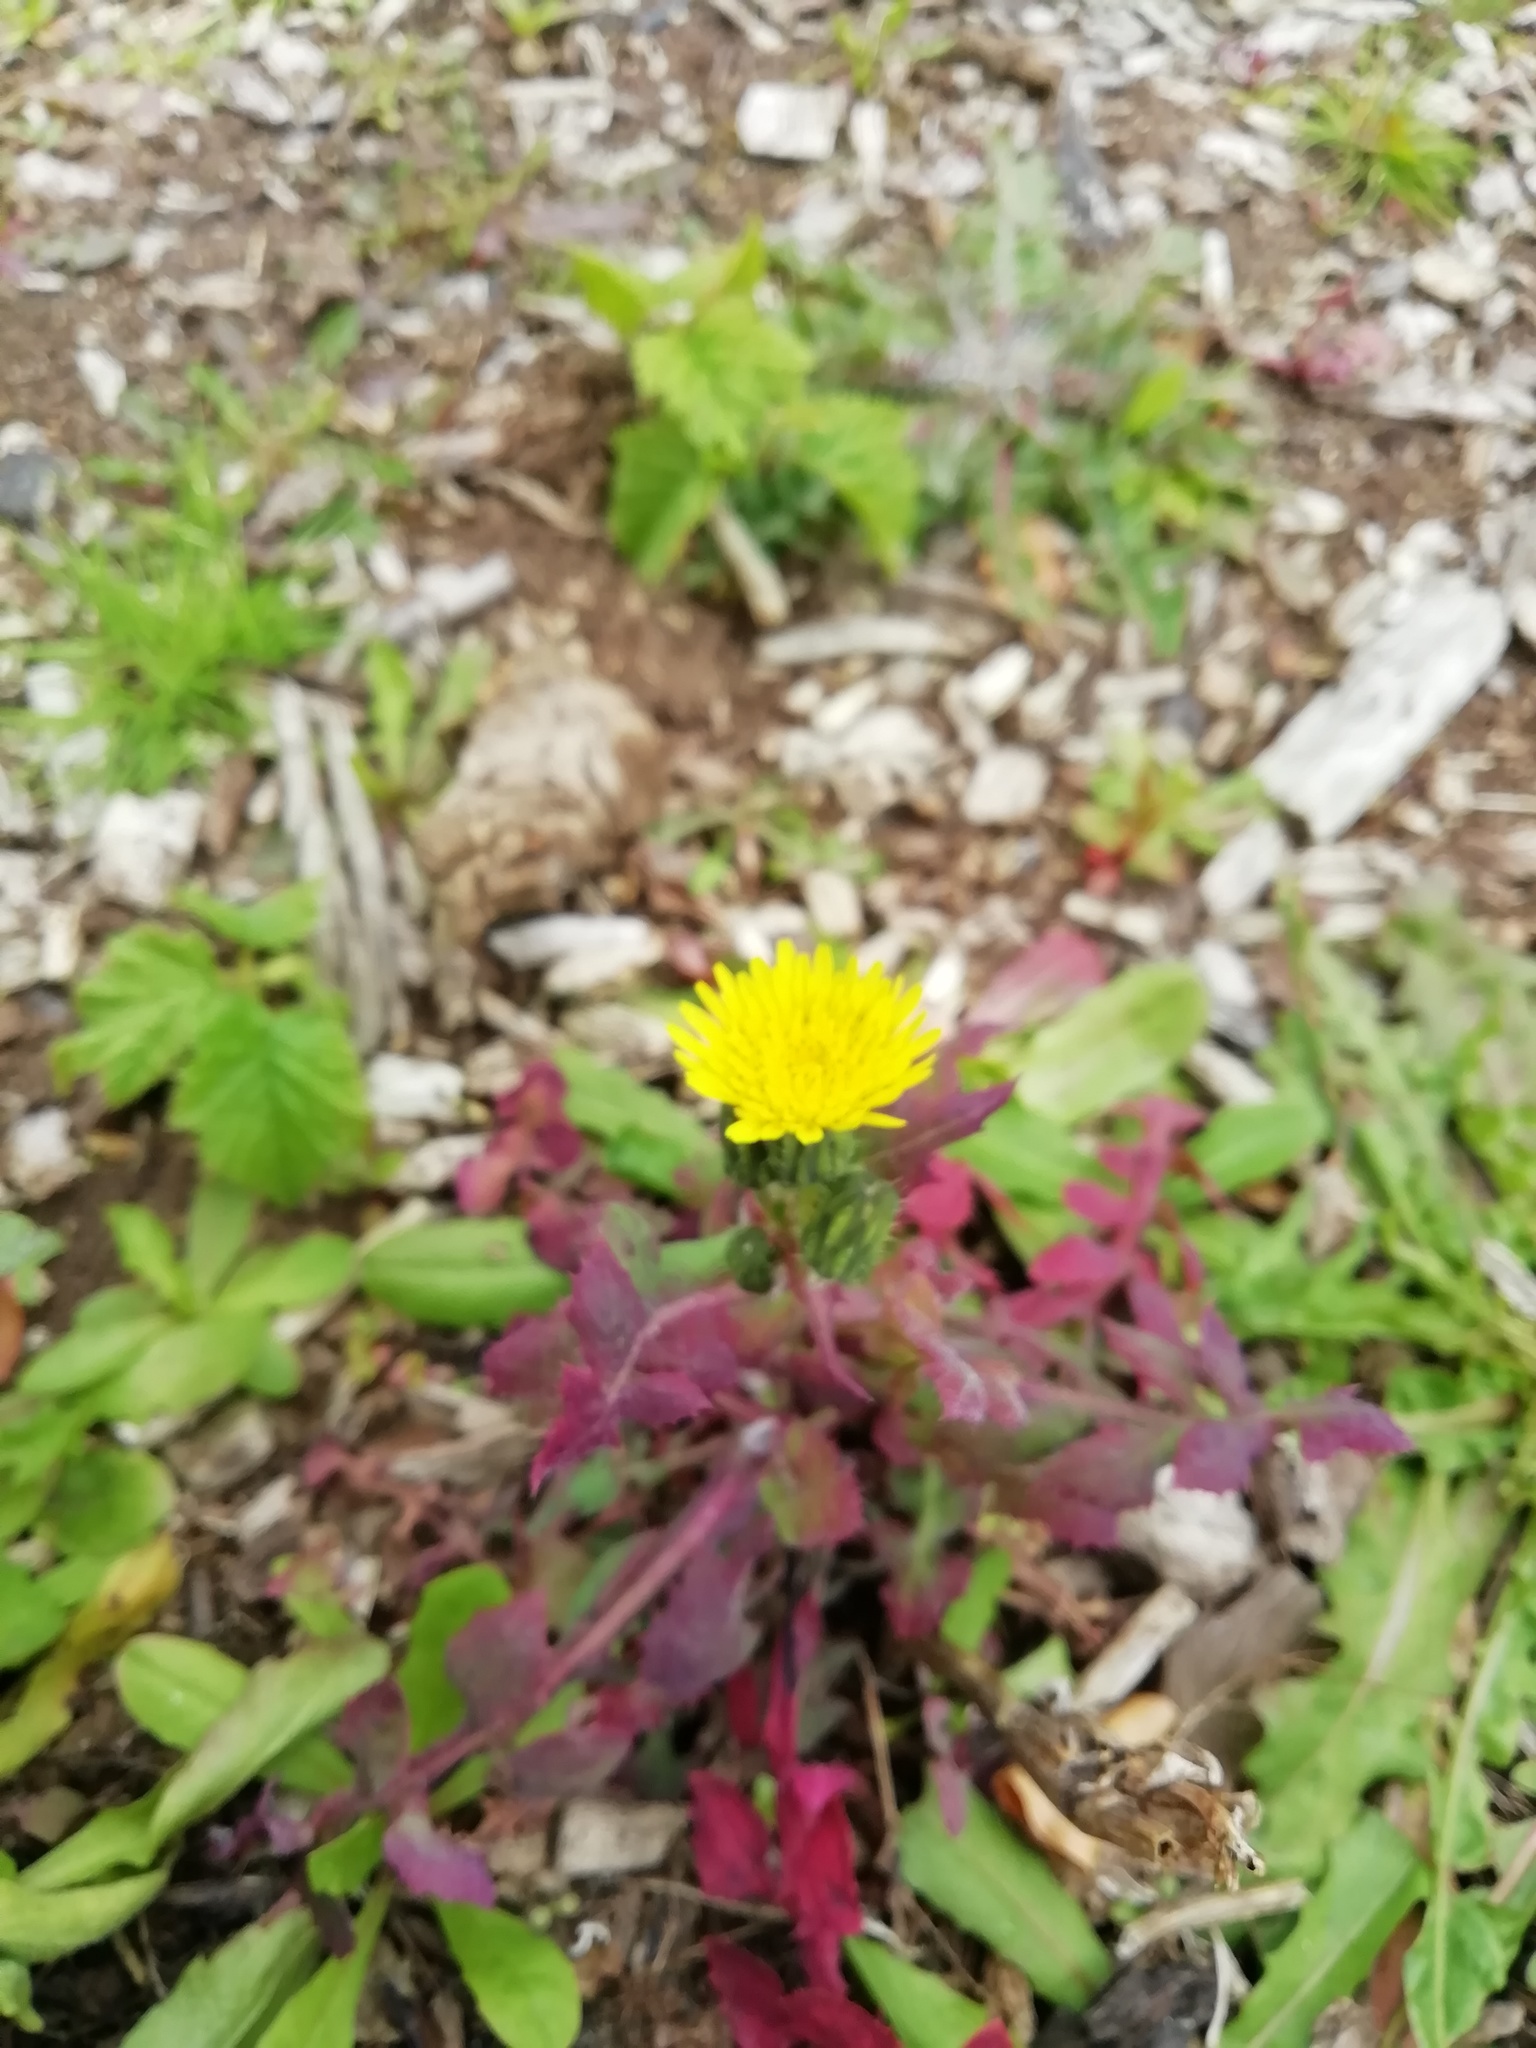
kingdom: Plantae
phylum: Tracheophyta
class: Magnoliopsida
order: Asterales
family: Asteraceae
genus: Sonchus
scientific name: Sonchus oleraceus
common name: Common sowthistle
